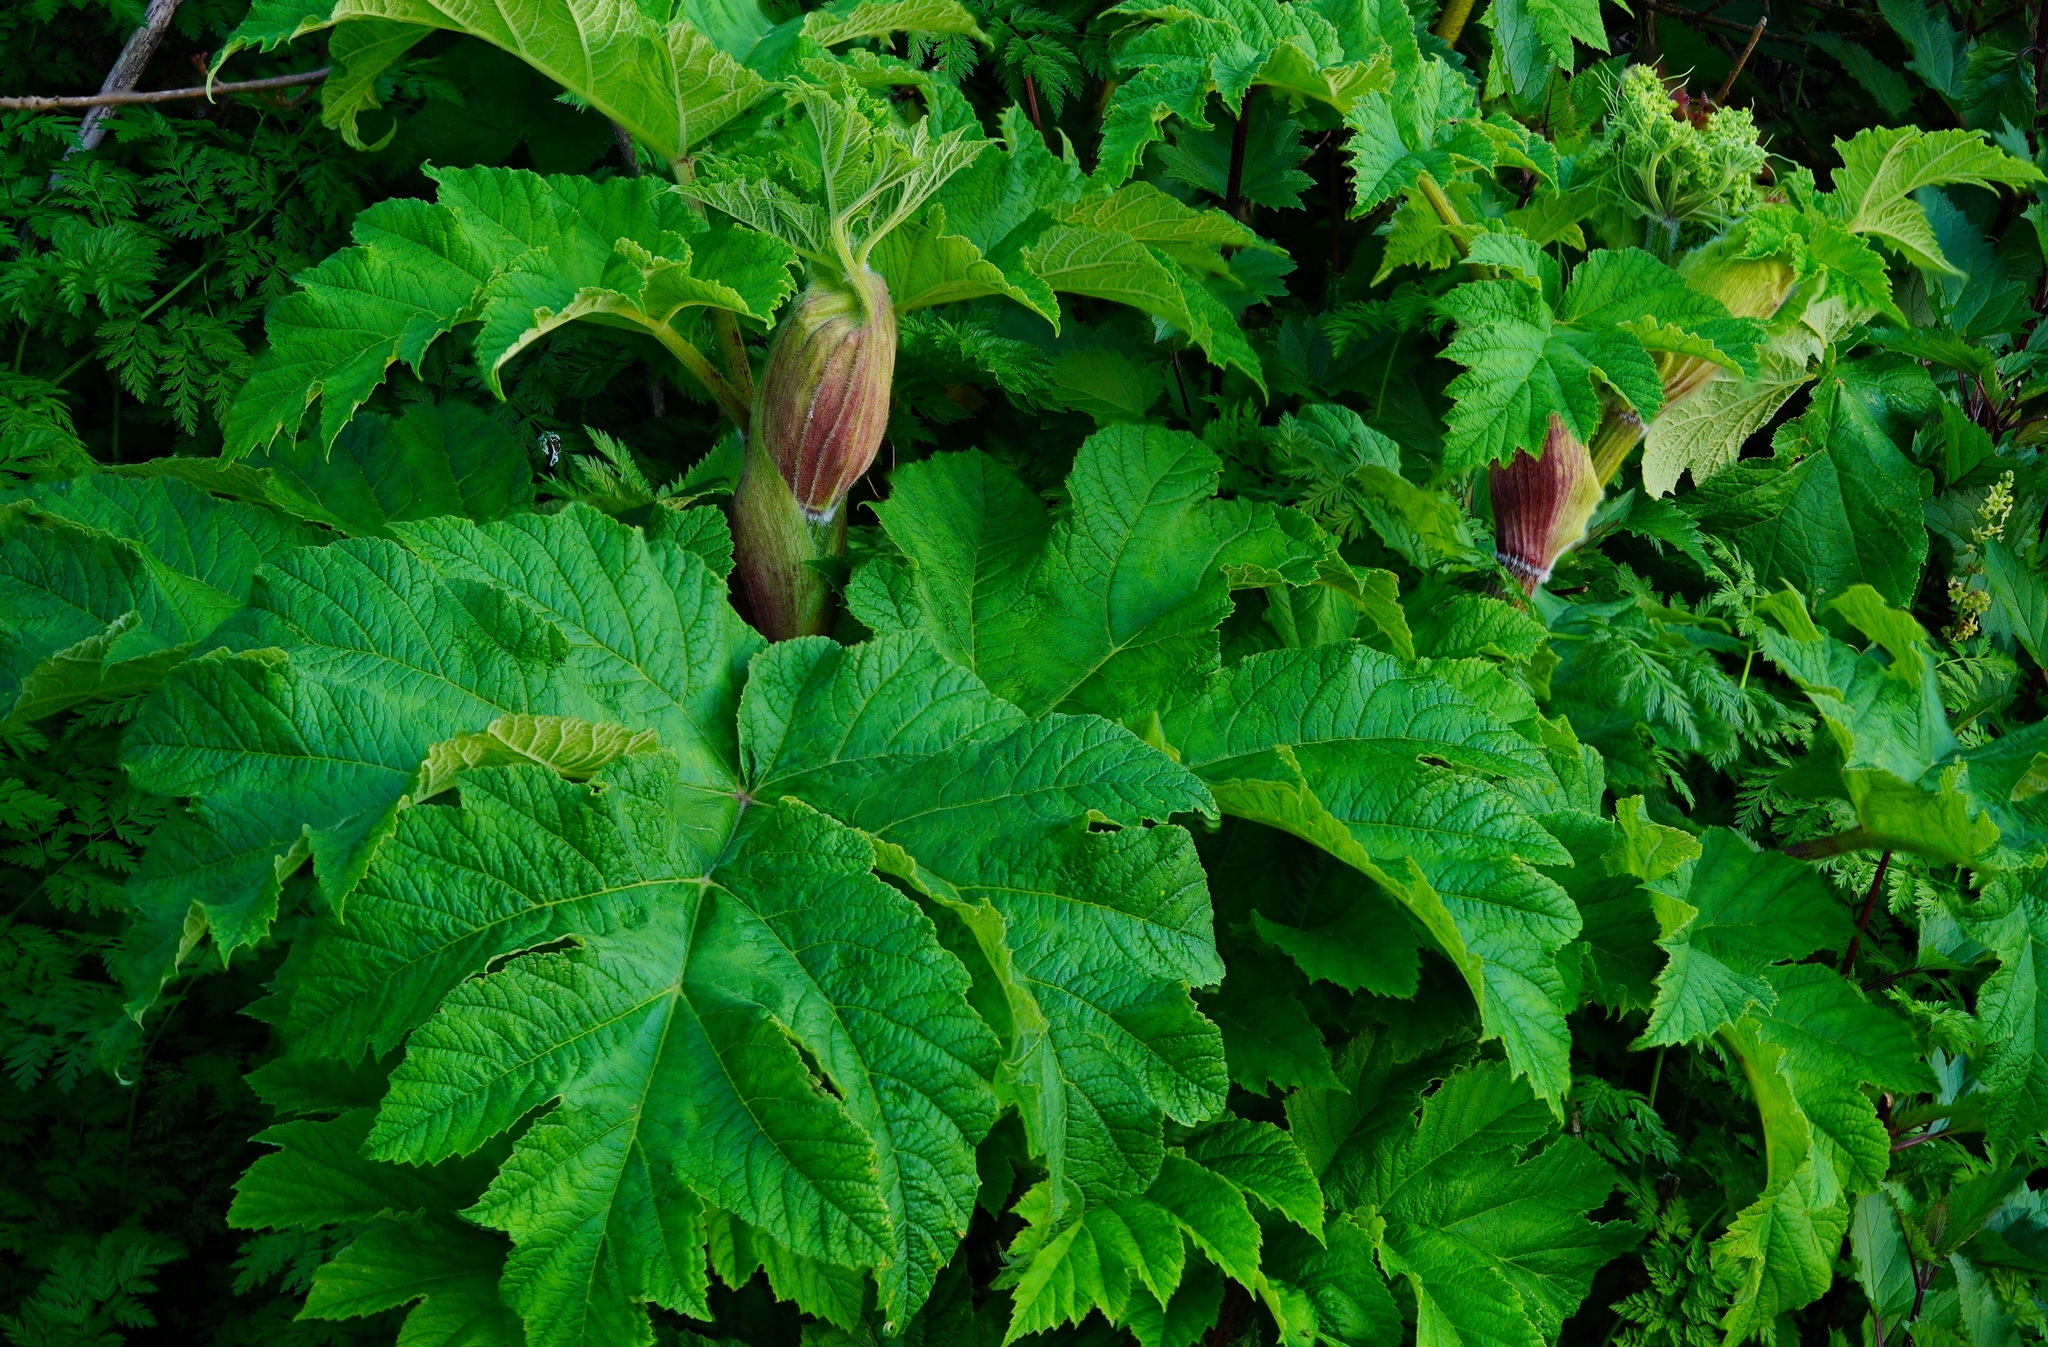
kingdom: Plantae
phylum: Tracheophyta
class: Magnoliopsida
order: Apiales
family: Apiaceae
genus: Heracleum
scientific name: Heracleum maximum
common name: American cow parsnip
